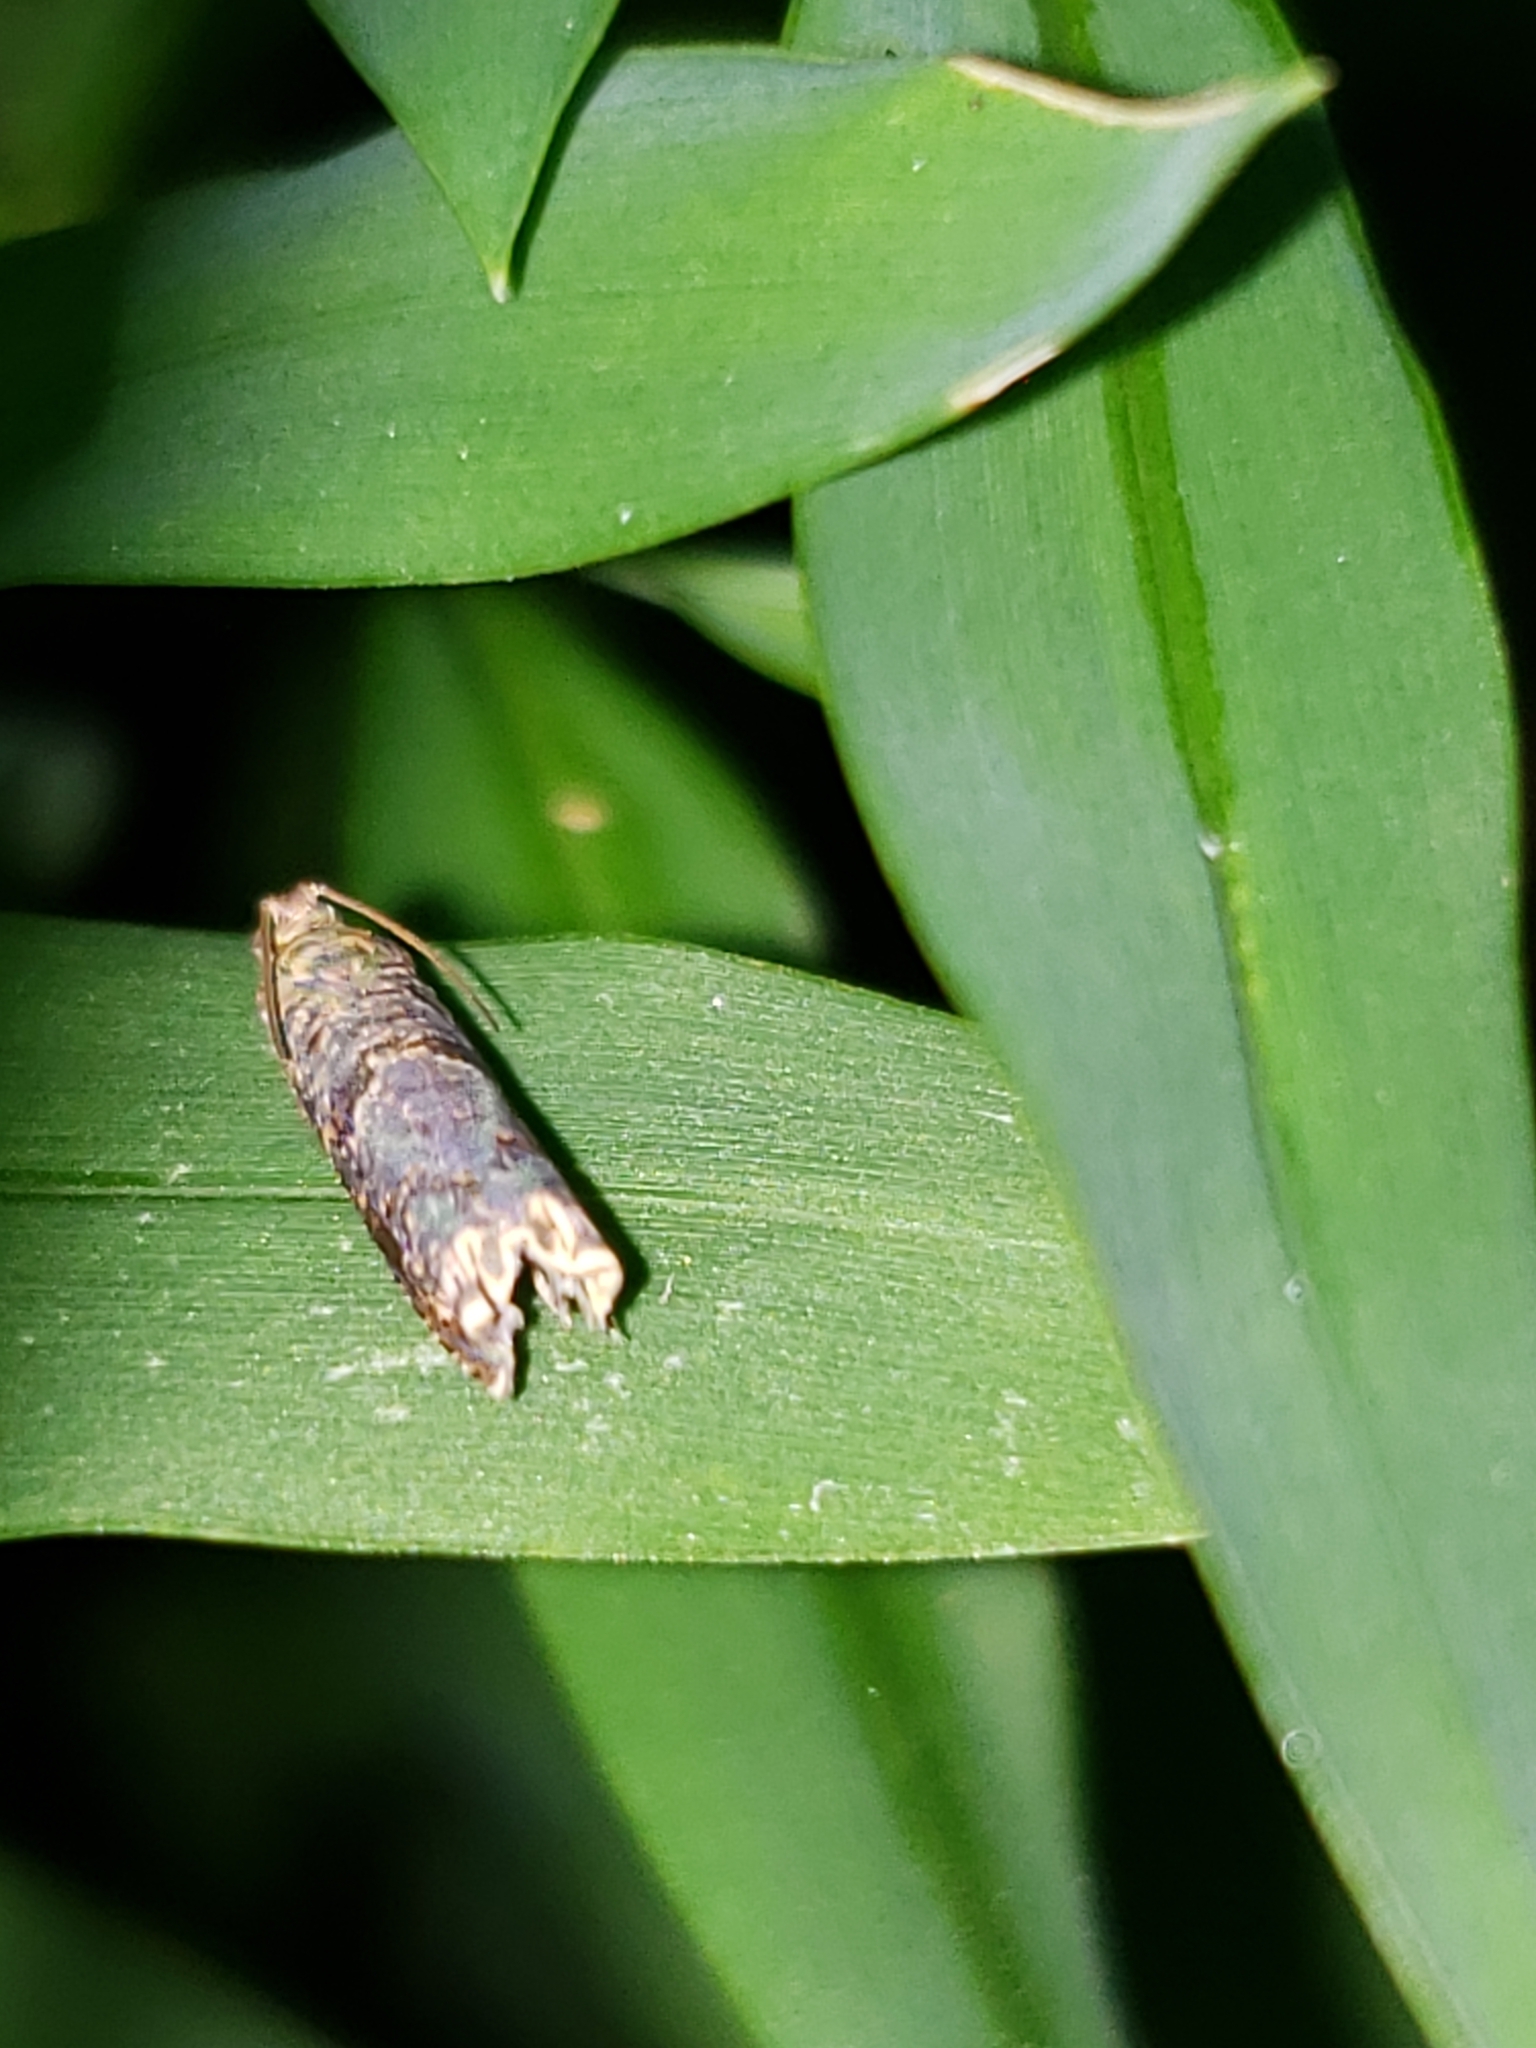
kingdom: Animalia
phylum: Arthropoda
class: Insecta
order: Lepidoptera
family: Tortricidae
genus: Episimus
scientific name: Episimus argutana
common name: Sumac leaftier moth
